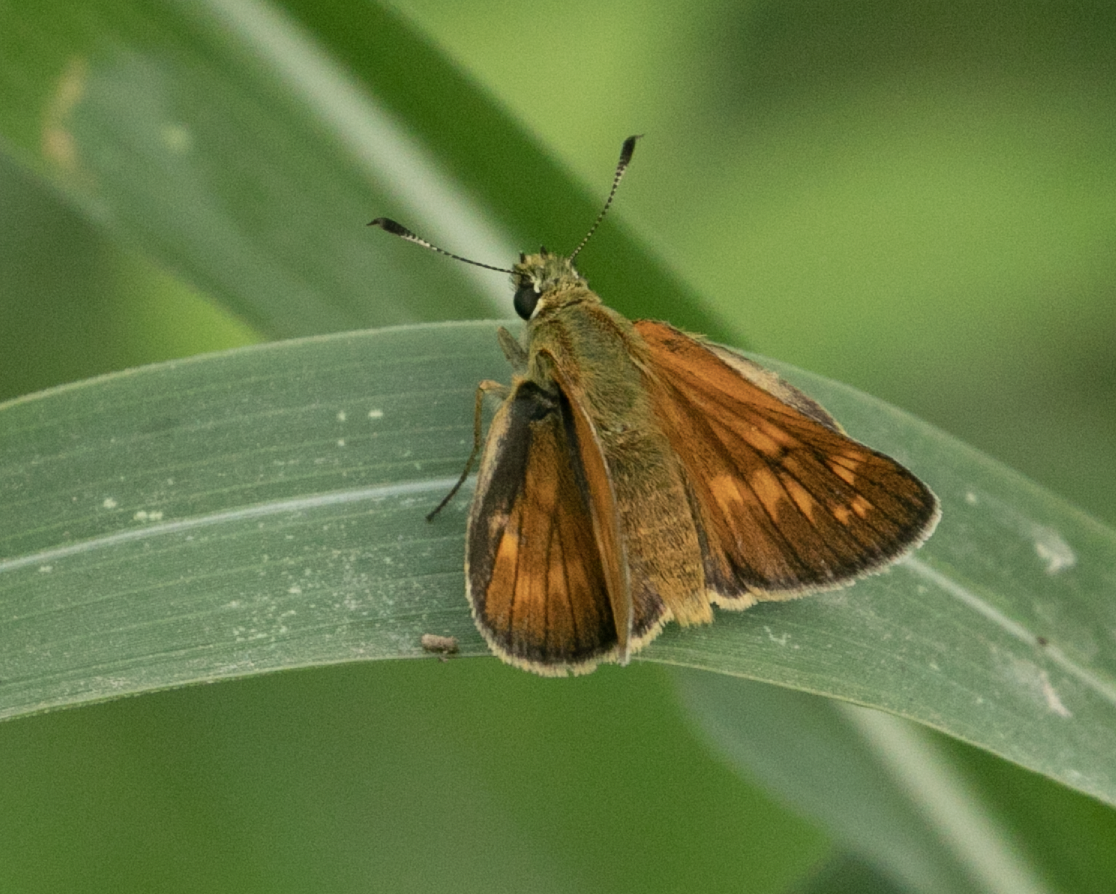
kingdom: Animalia
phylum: Arthropoda
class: Insecta
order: Lepidoptera
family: Hesperiidae
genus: Ochlodes
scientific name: Ochlodes venata
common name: Large skipper
